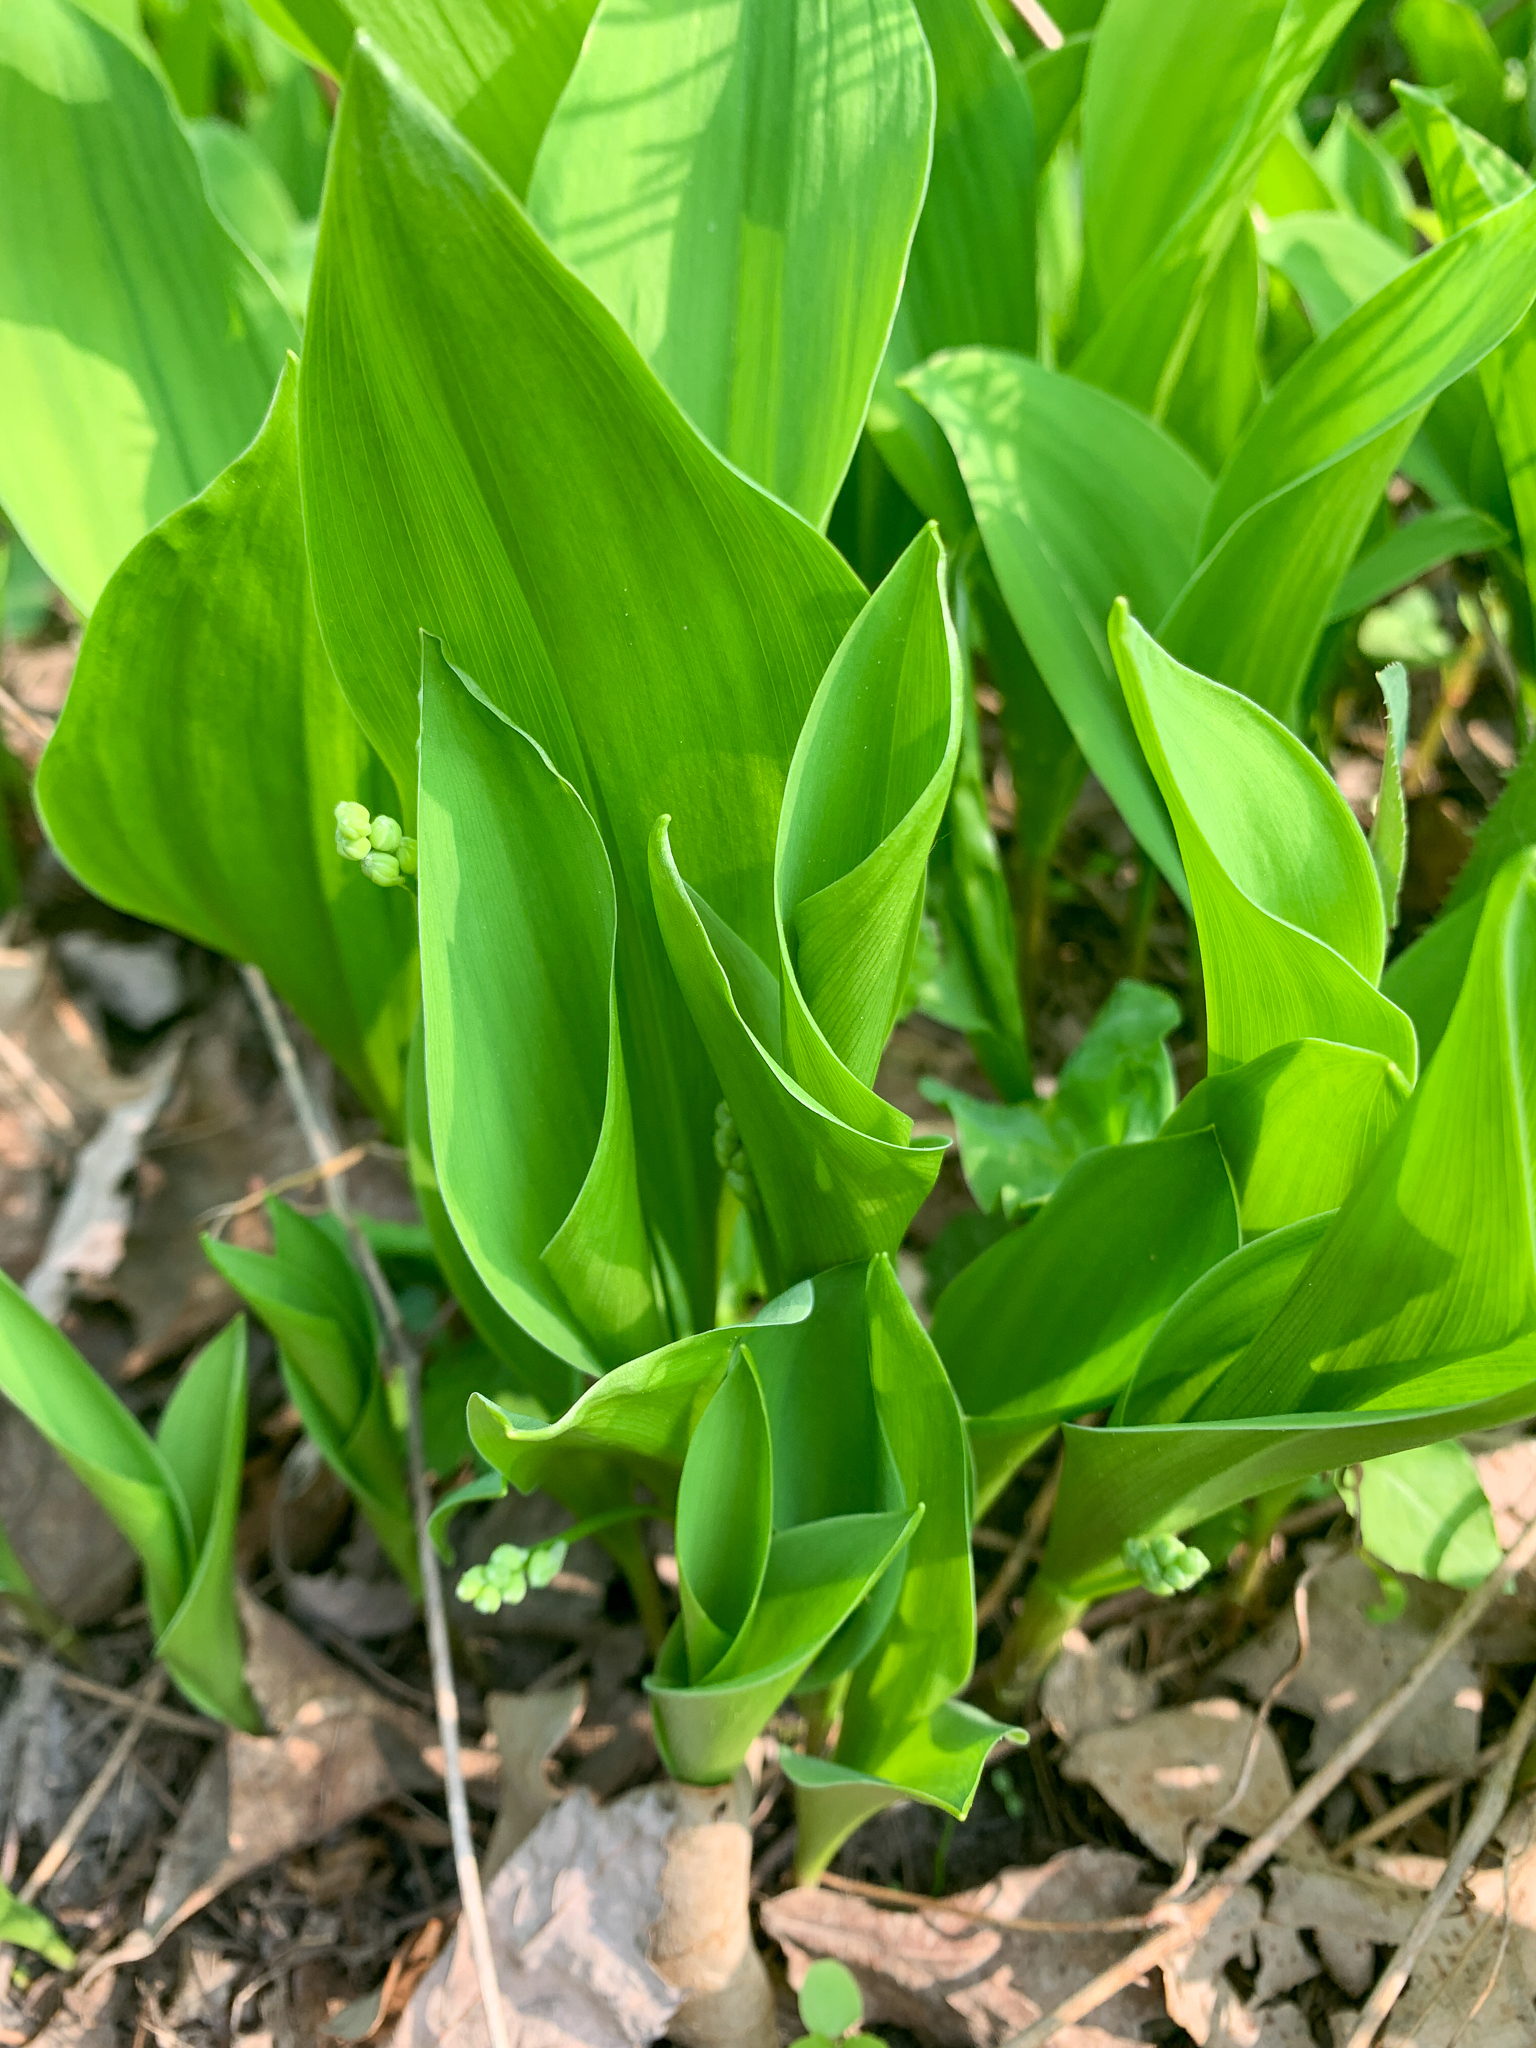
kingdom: Plantae
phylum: Tracheophyta
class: Liliopsida
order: Asparagales
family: Asparagaceae
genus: Convallaria
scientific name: Convallaria majalis
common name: Lily-of-the-valley
